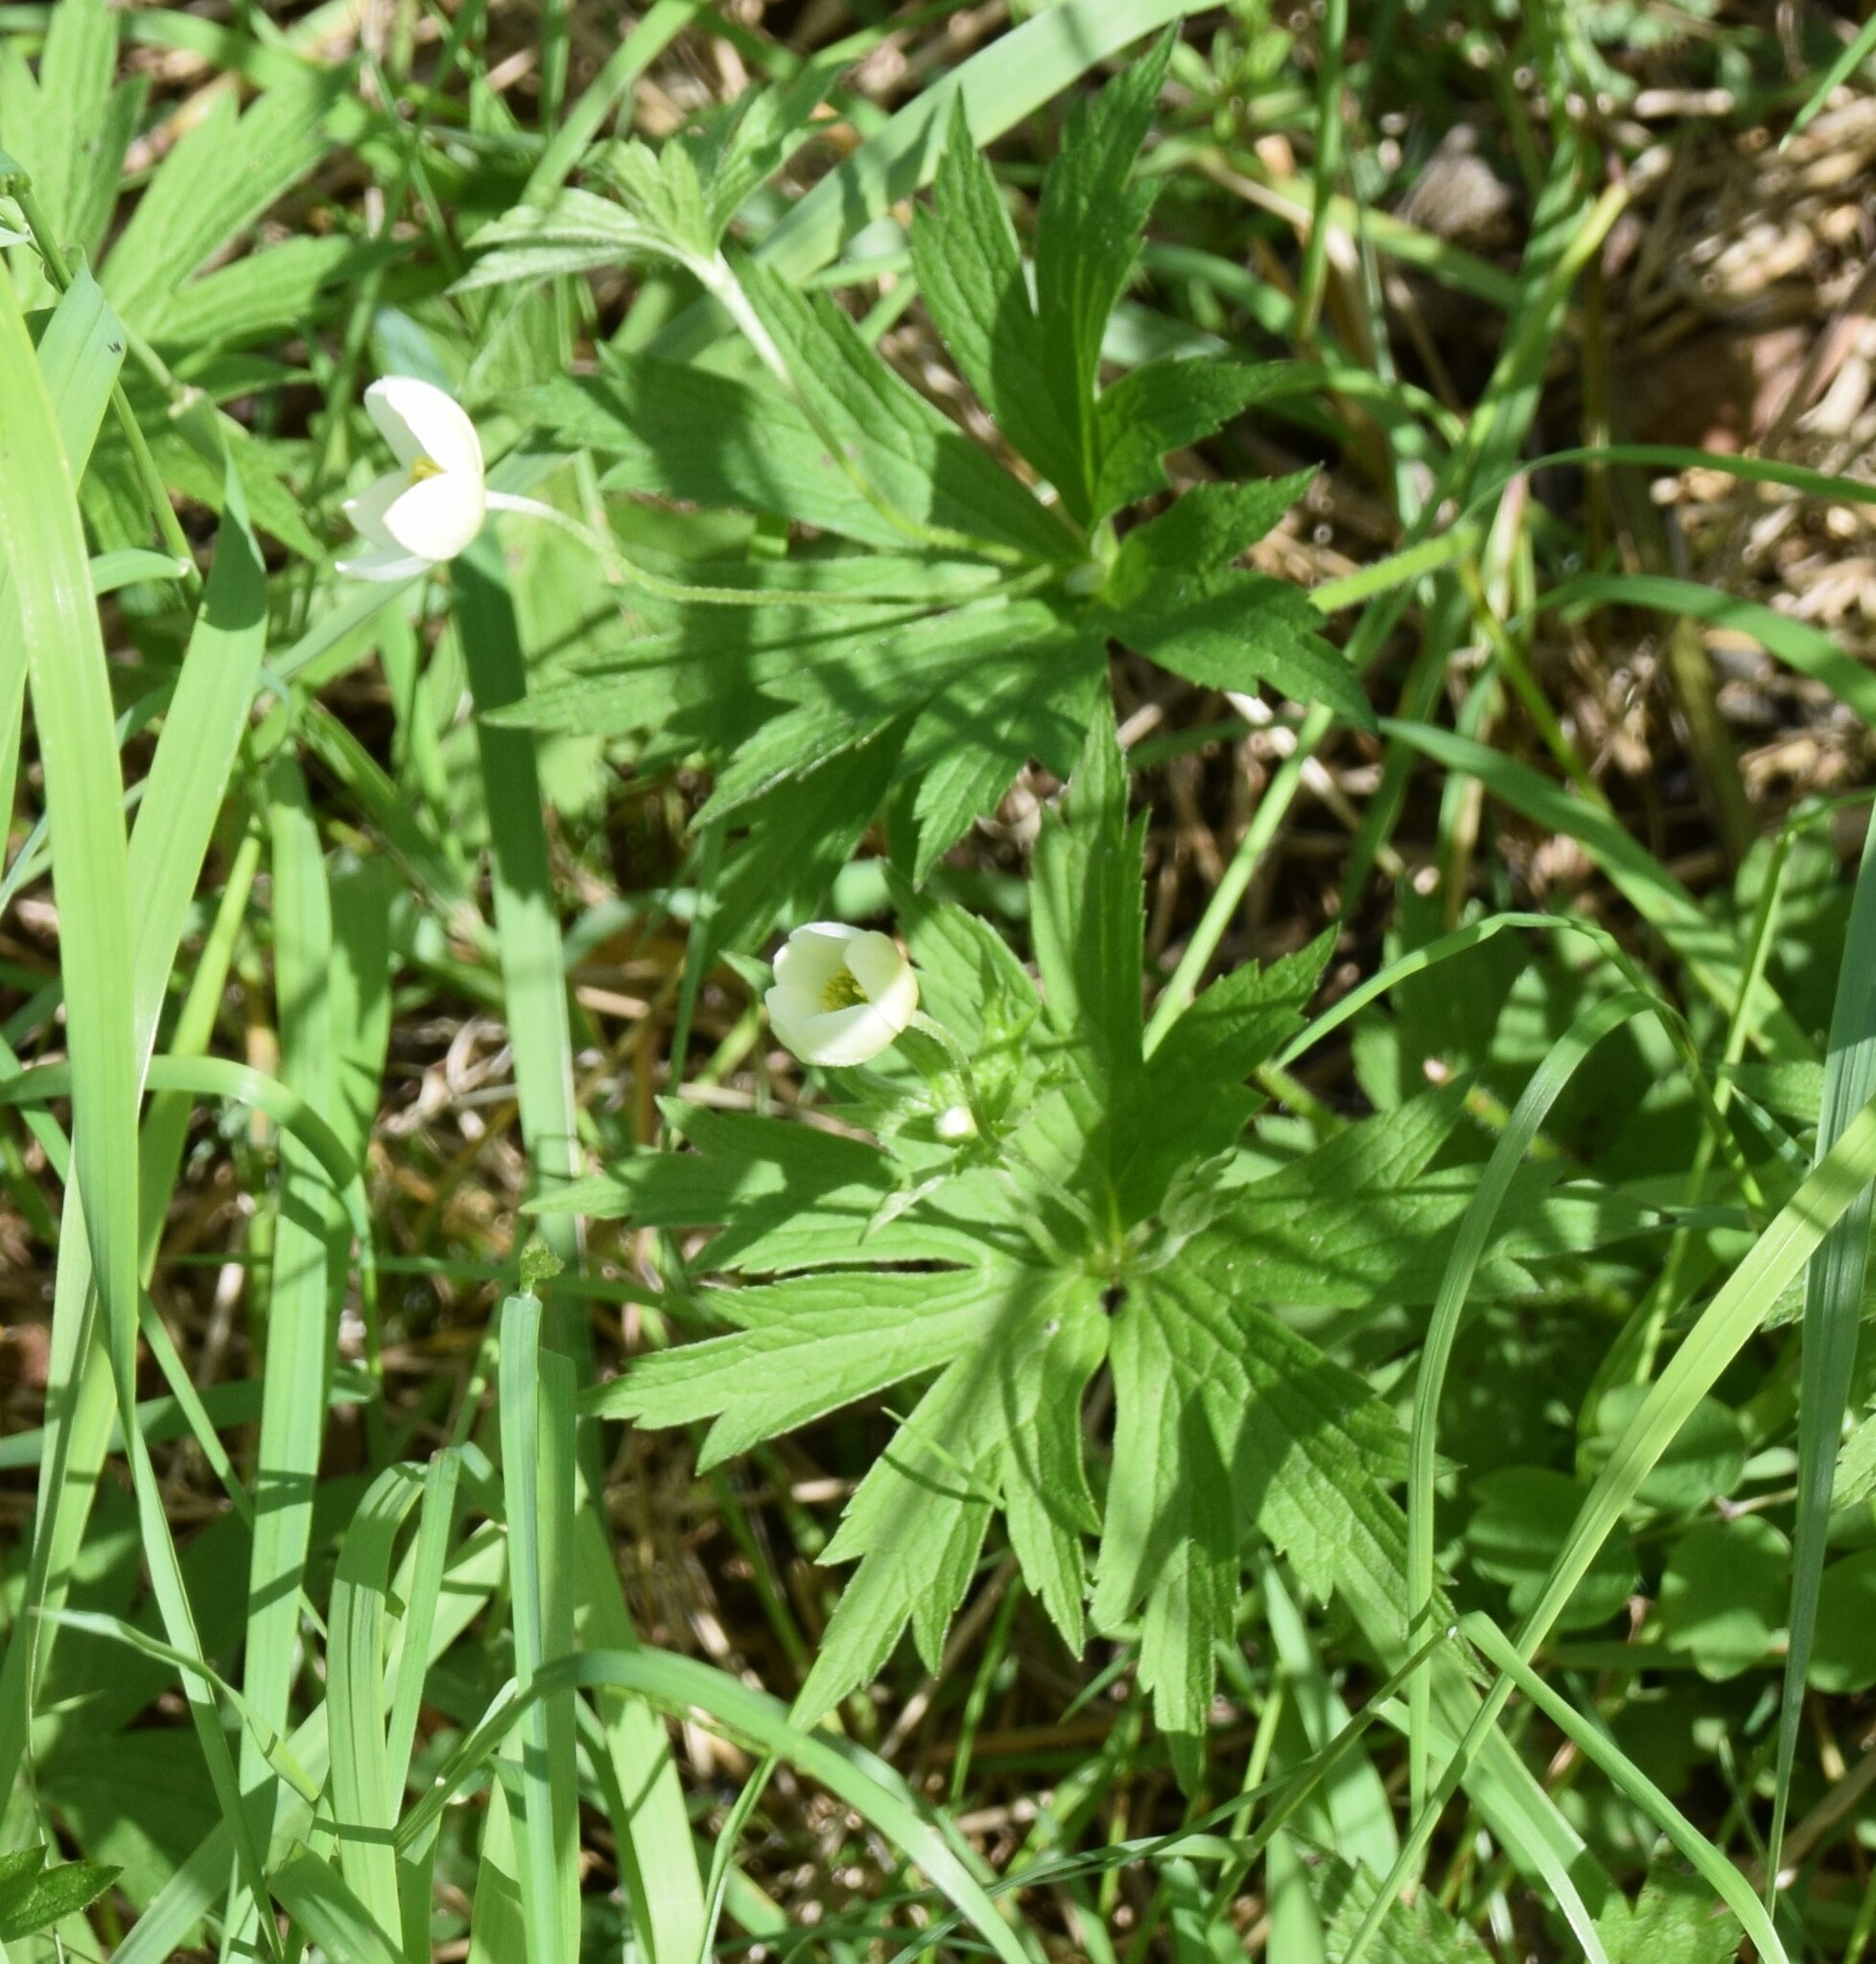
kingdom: Plantae
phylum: Tracheophyta
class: Magnoliopsida
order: Ranunculales
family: Ranunculaceae
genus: Anemonastrum
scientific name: Anemonastrum canadense
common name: Canada anemone
